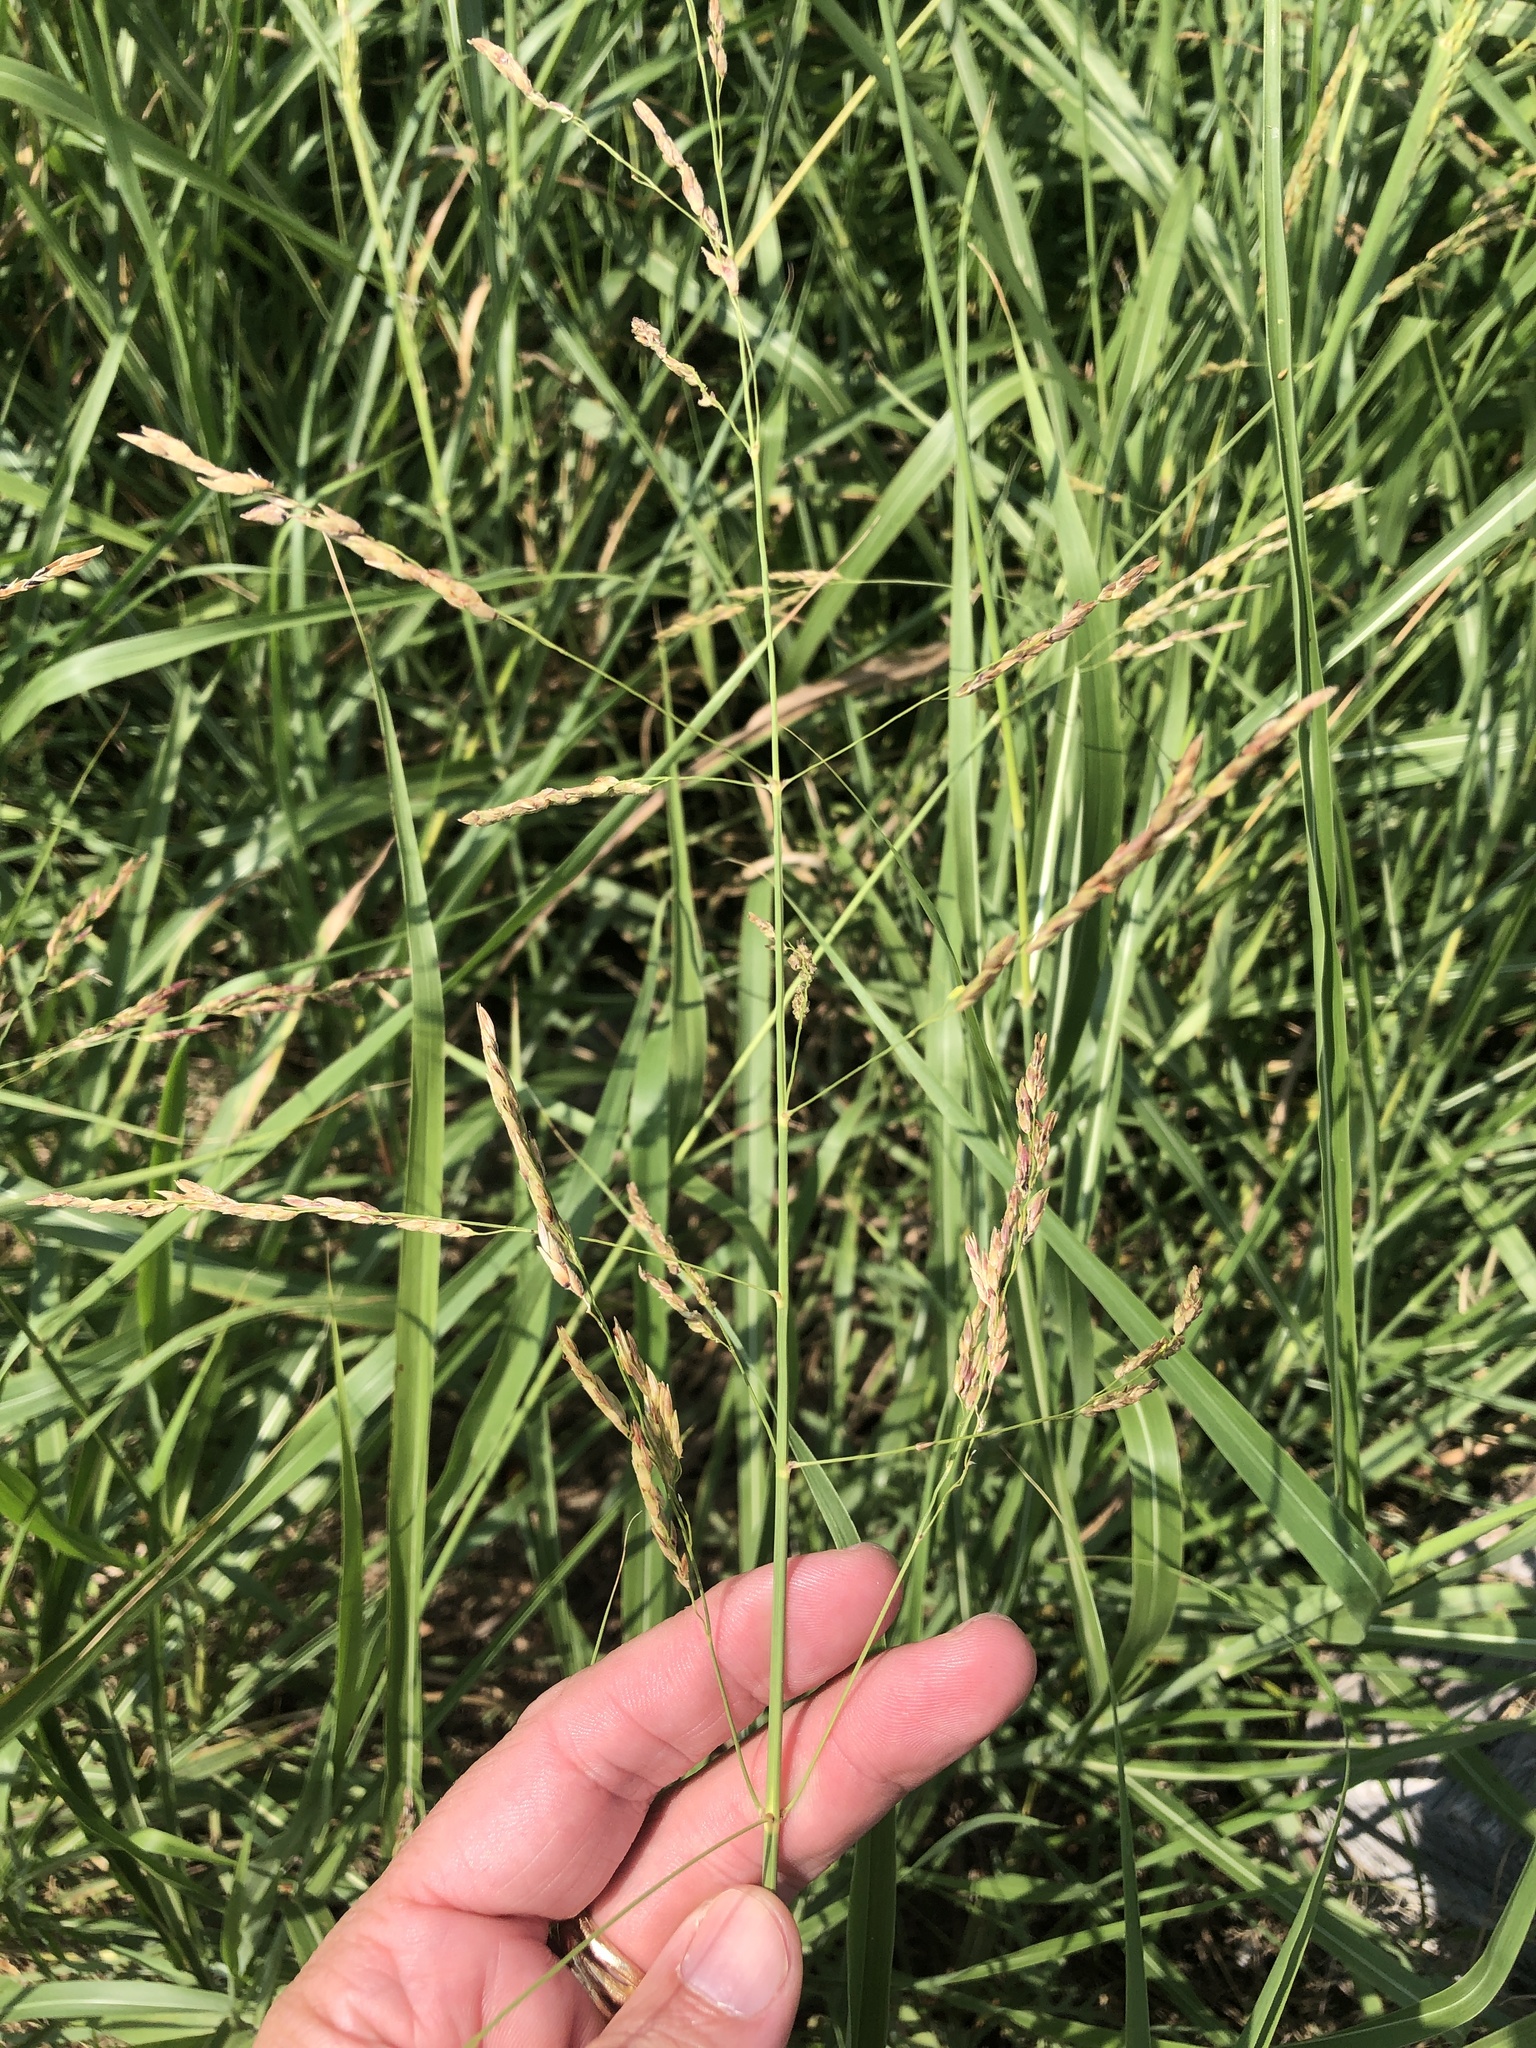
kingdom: Plantae
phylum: Tracheophyta
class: Liliopsida
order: Poales
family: Poaceae
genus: Sorghum
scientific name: Sorghum halepense
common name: Johnson-grass
